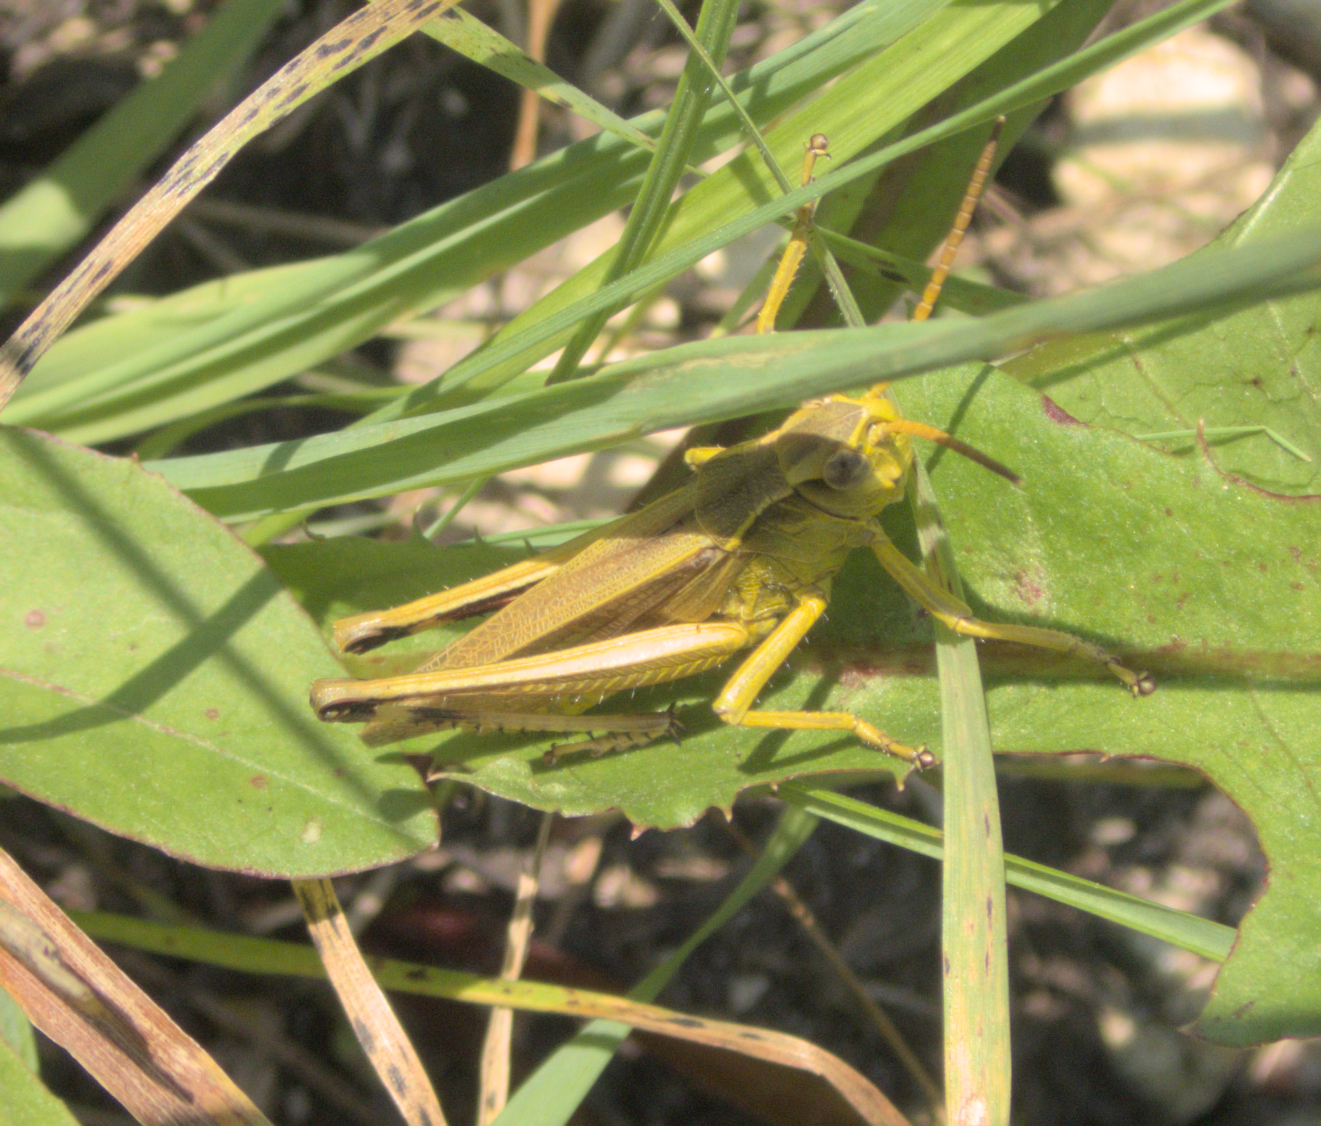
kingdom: Animalia
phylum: Arthropoda
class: Insecta
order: Orthoptera
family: Acrididae
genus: Stethophyma
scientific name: Stethophyma gracile
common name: Graceful sedge grasshopper
